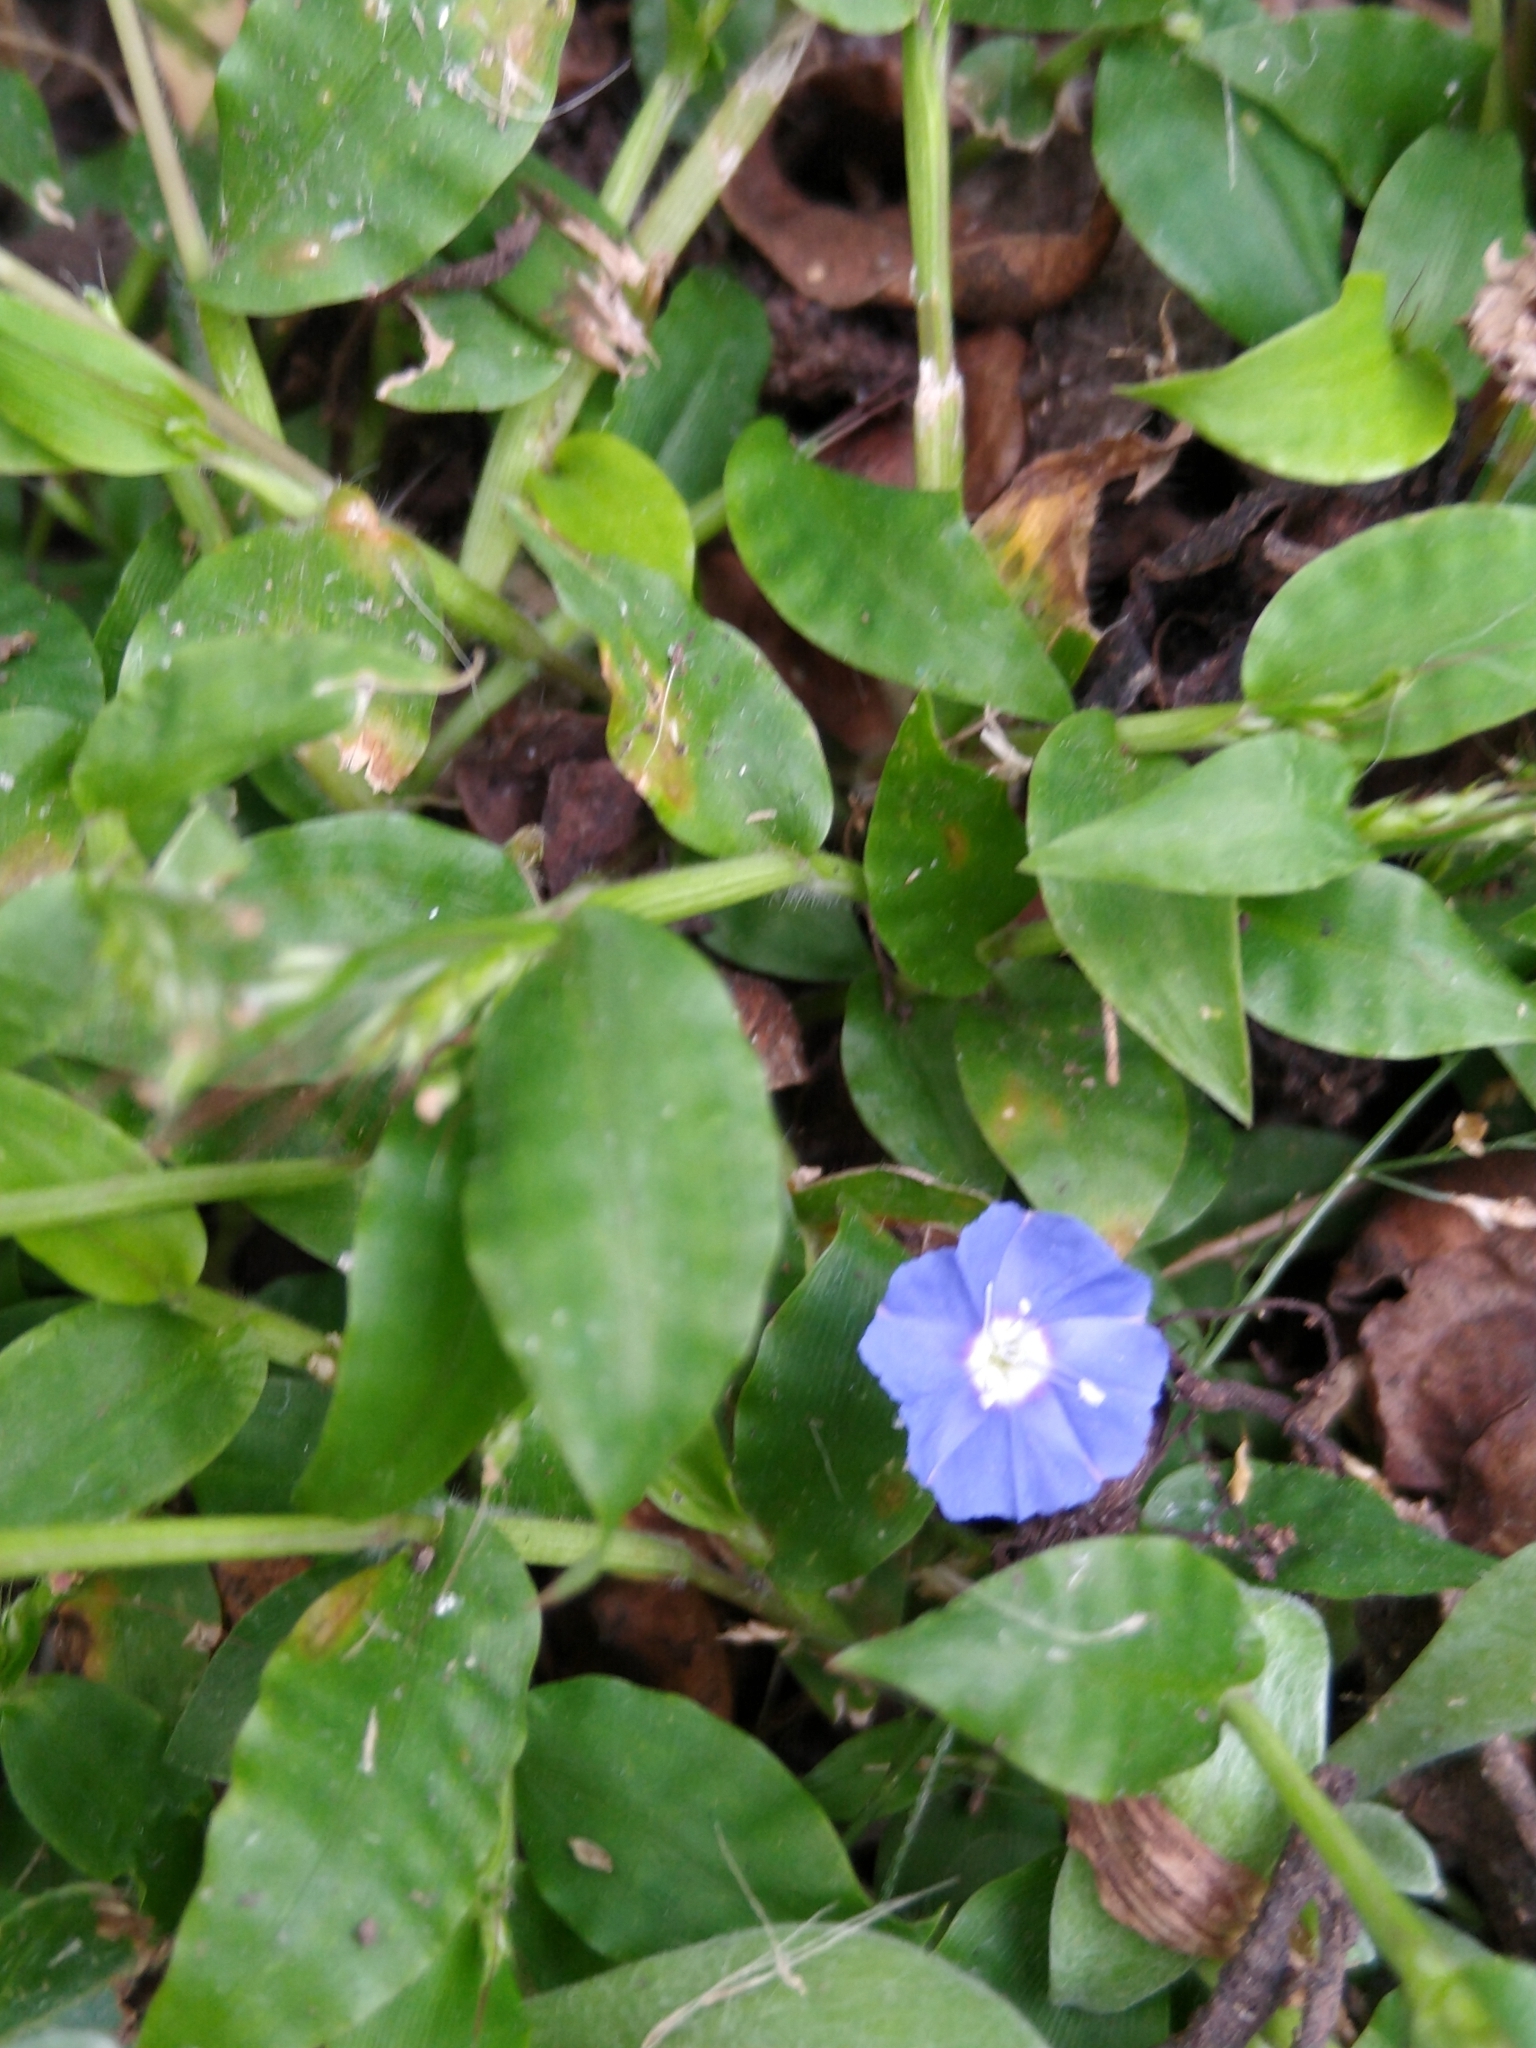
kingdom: Plantae
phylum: Tracheophyta
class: Magnoliopsida
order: Solanales
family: Convolvulaceae
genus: Evolvulus
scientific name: Evolvulus alsinoides
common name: Slender dwarf morning-glory
